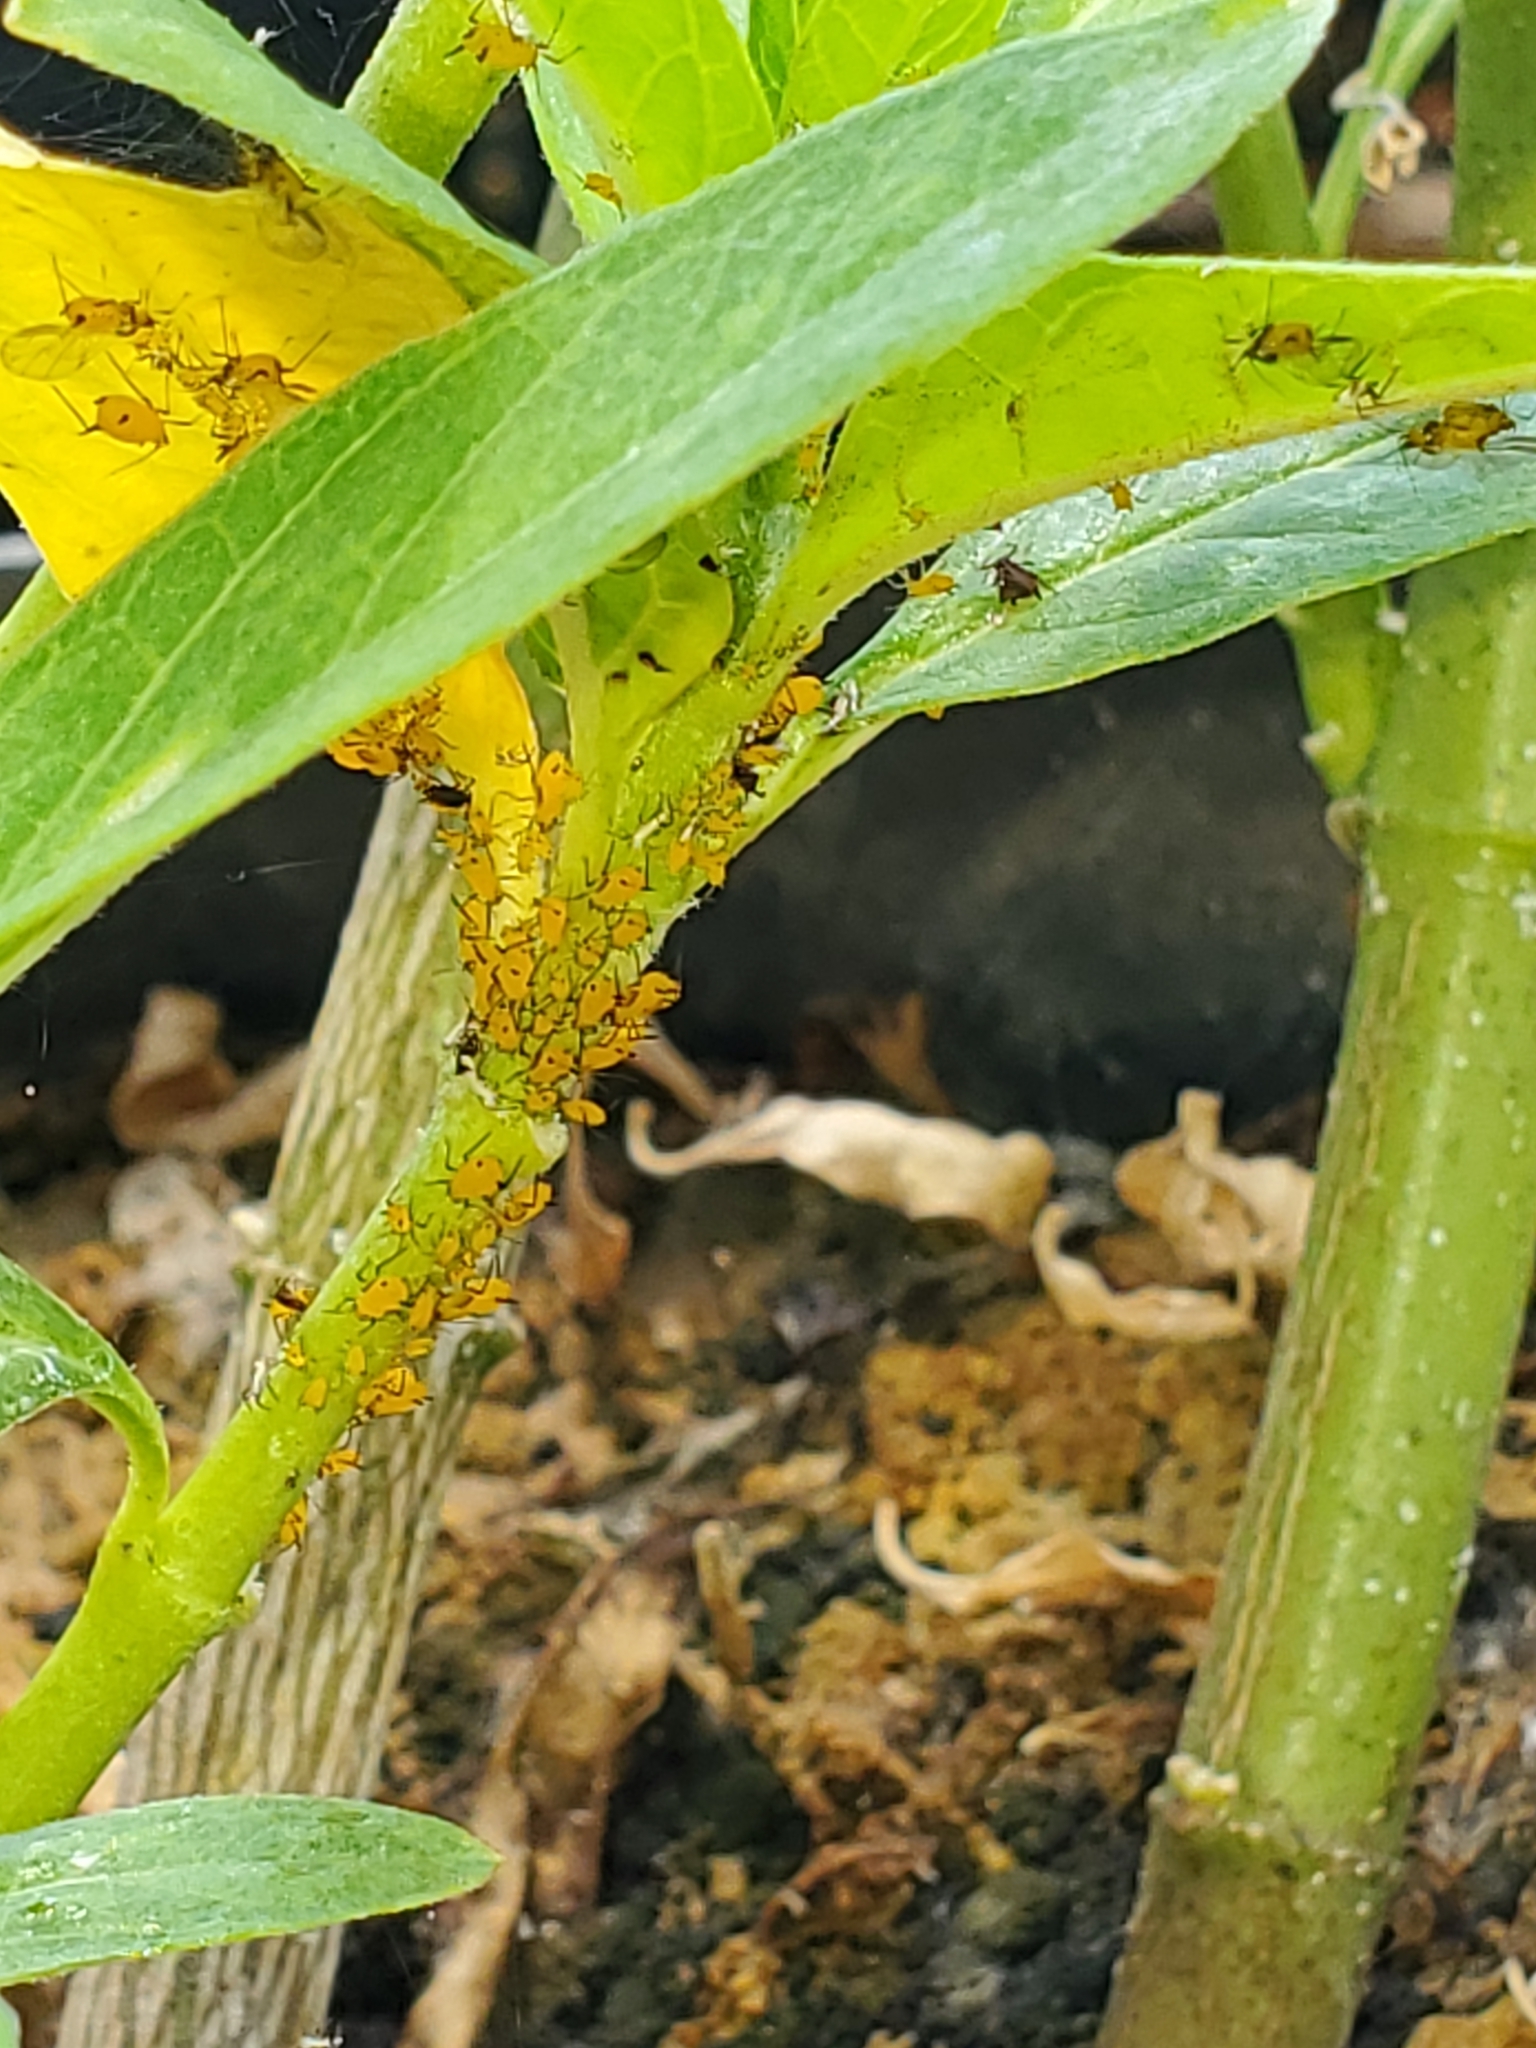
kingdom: Animalia
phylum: Arthropoda
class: Insecta
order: Hemiptera
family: Aphididae
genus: Aphis
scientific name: Aphis nerii
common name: Oleander aphid
